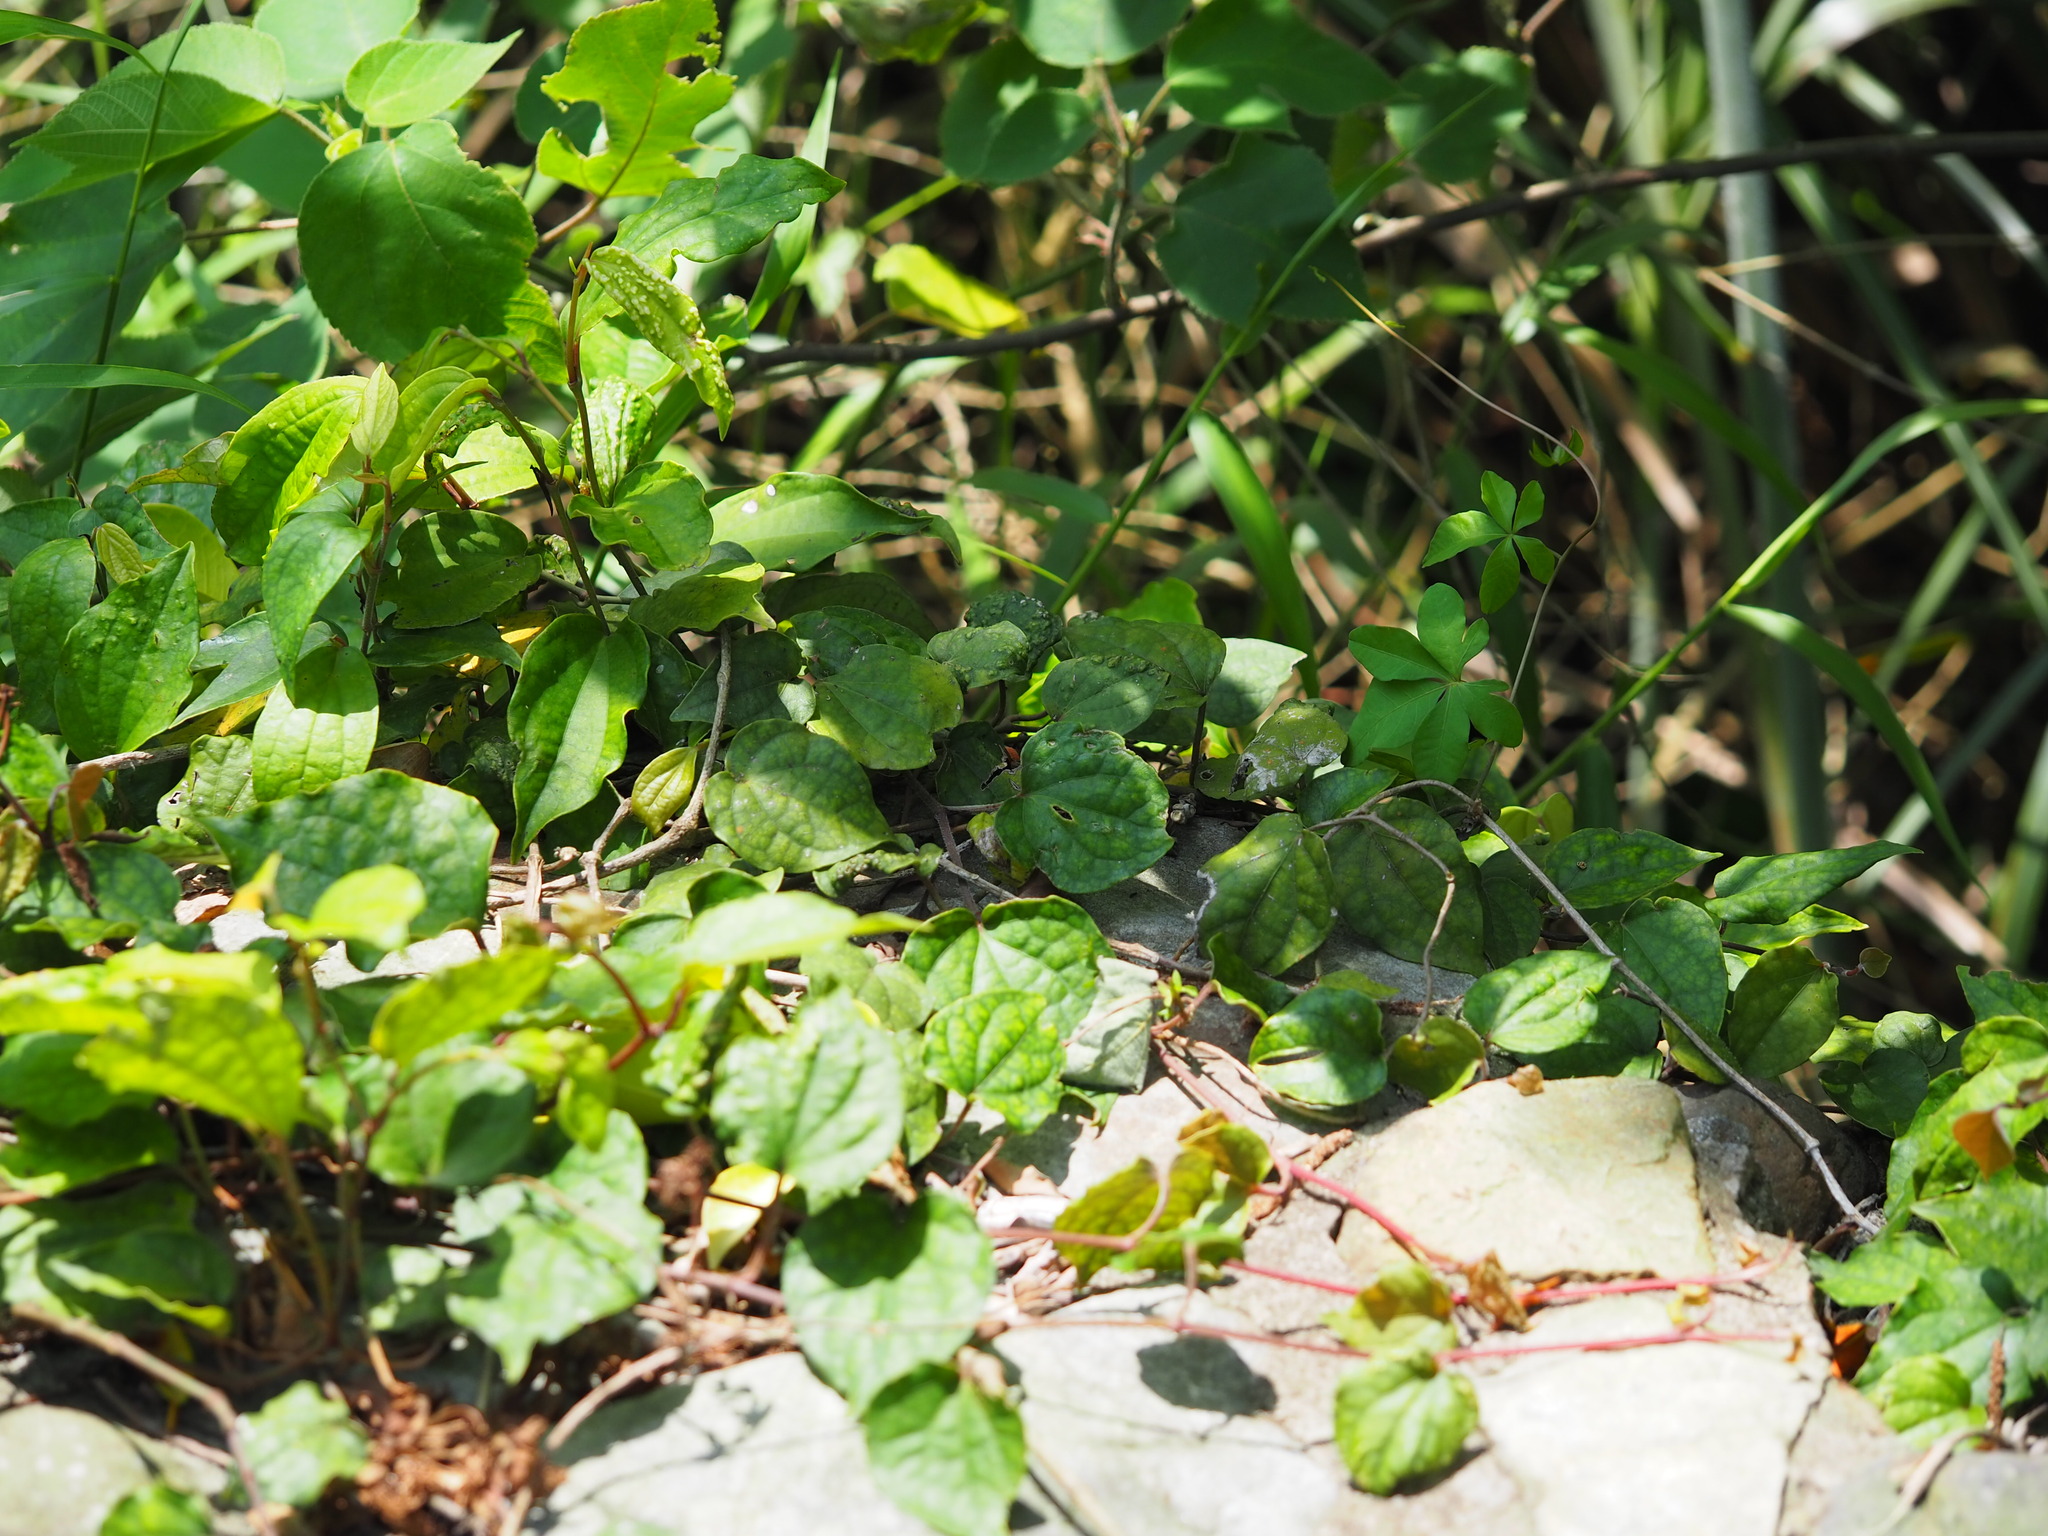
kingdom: Plantae
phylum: Tracheophyta
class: Magnoliopsida
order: Piperales
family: Piperaceae
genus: Piper
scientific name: Piper kadsura
